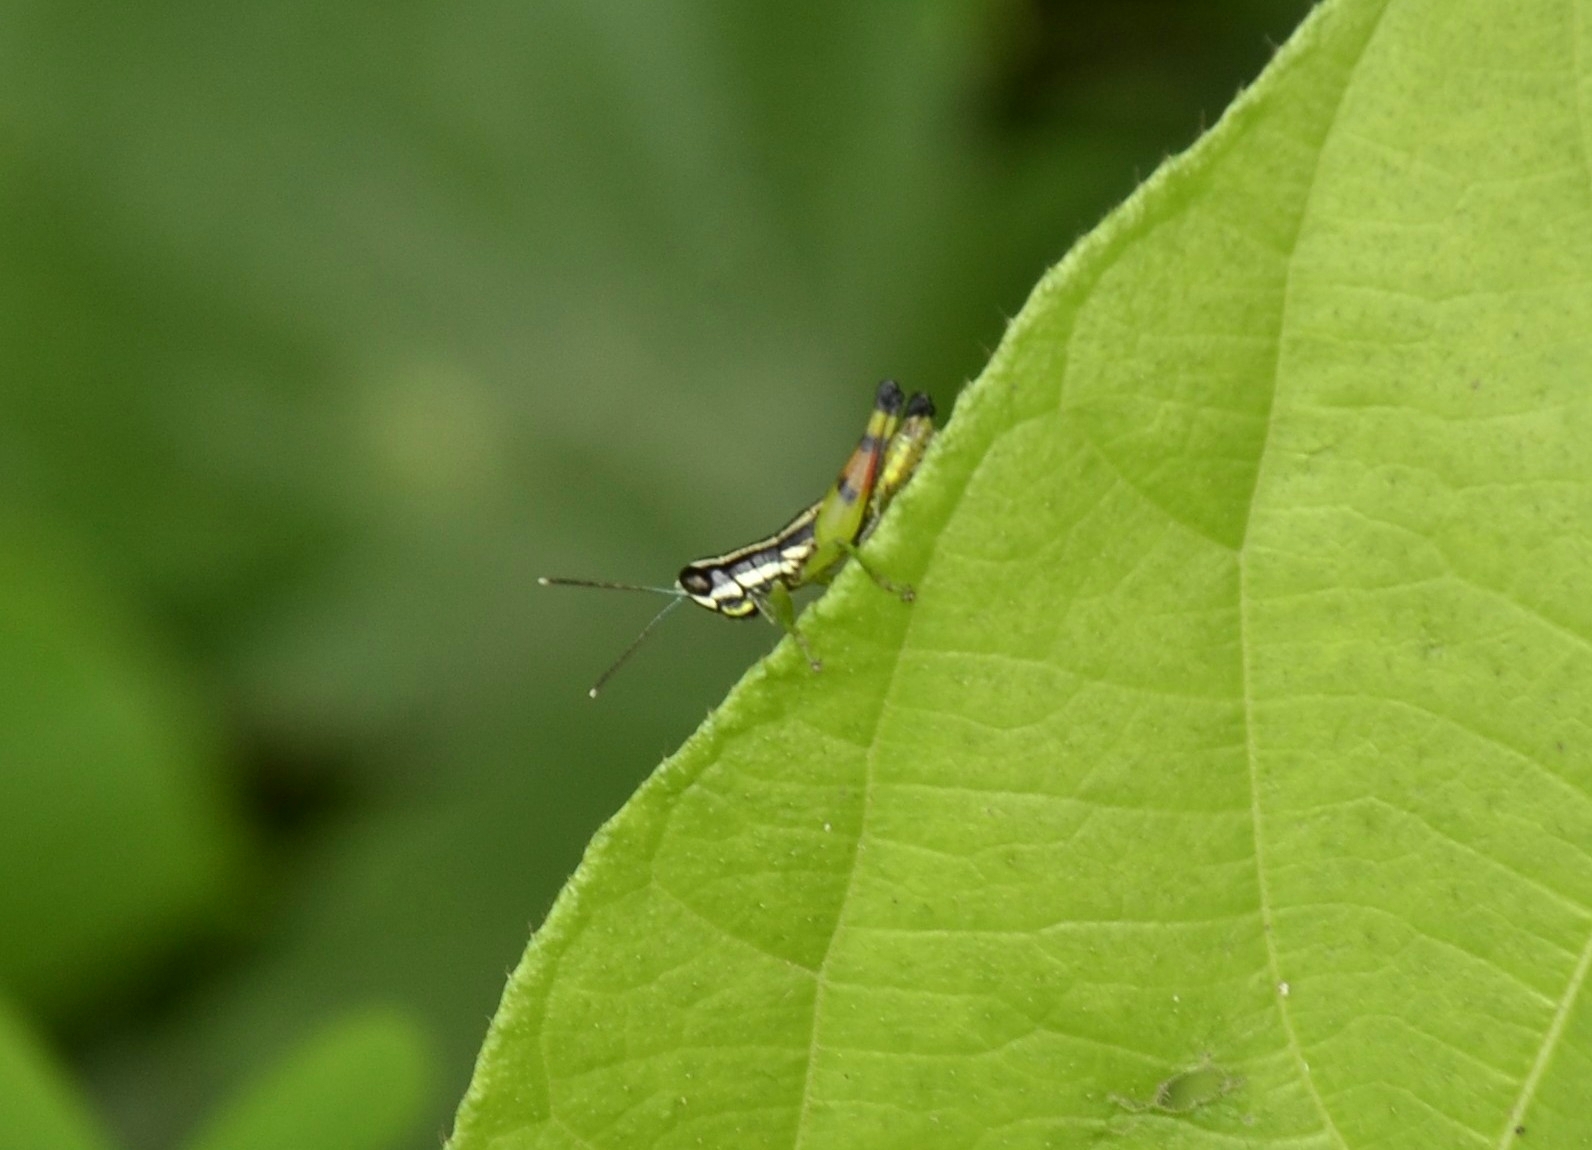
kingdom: Animalia
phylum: Arthropoda
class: Insecta
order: Orthoptera
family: Acrididae
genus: Chitaura
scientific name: Chitaura indica
